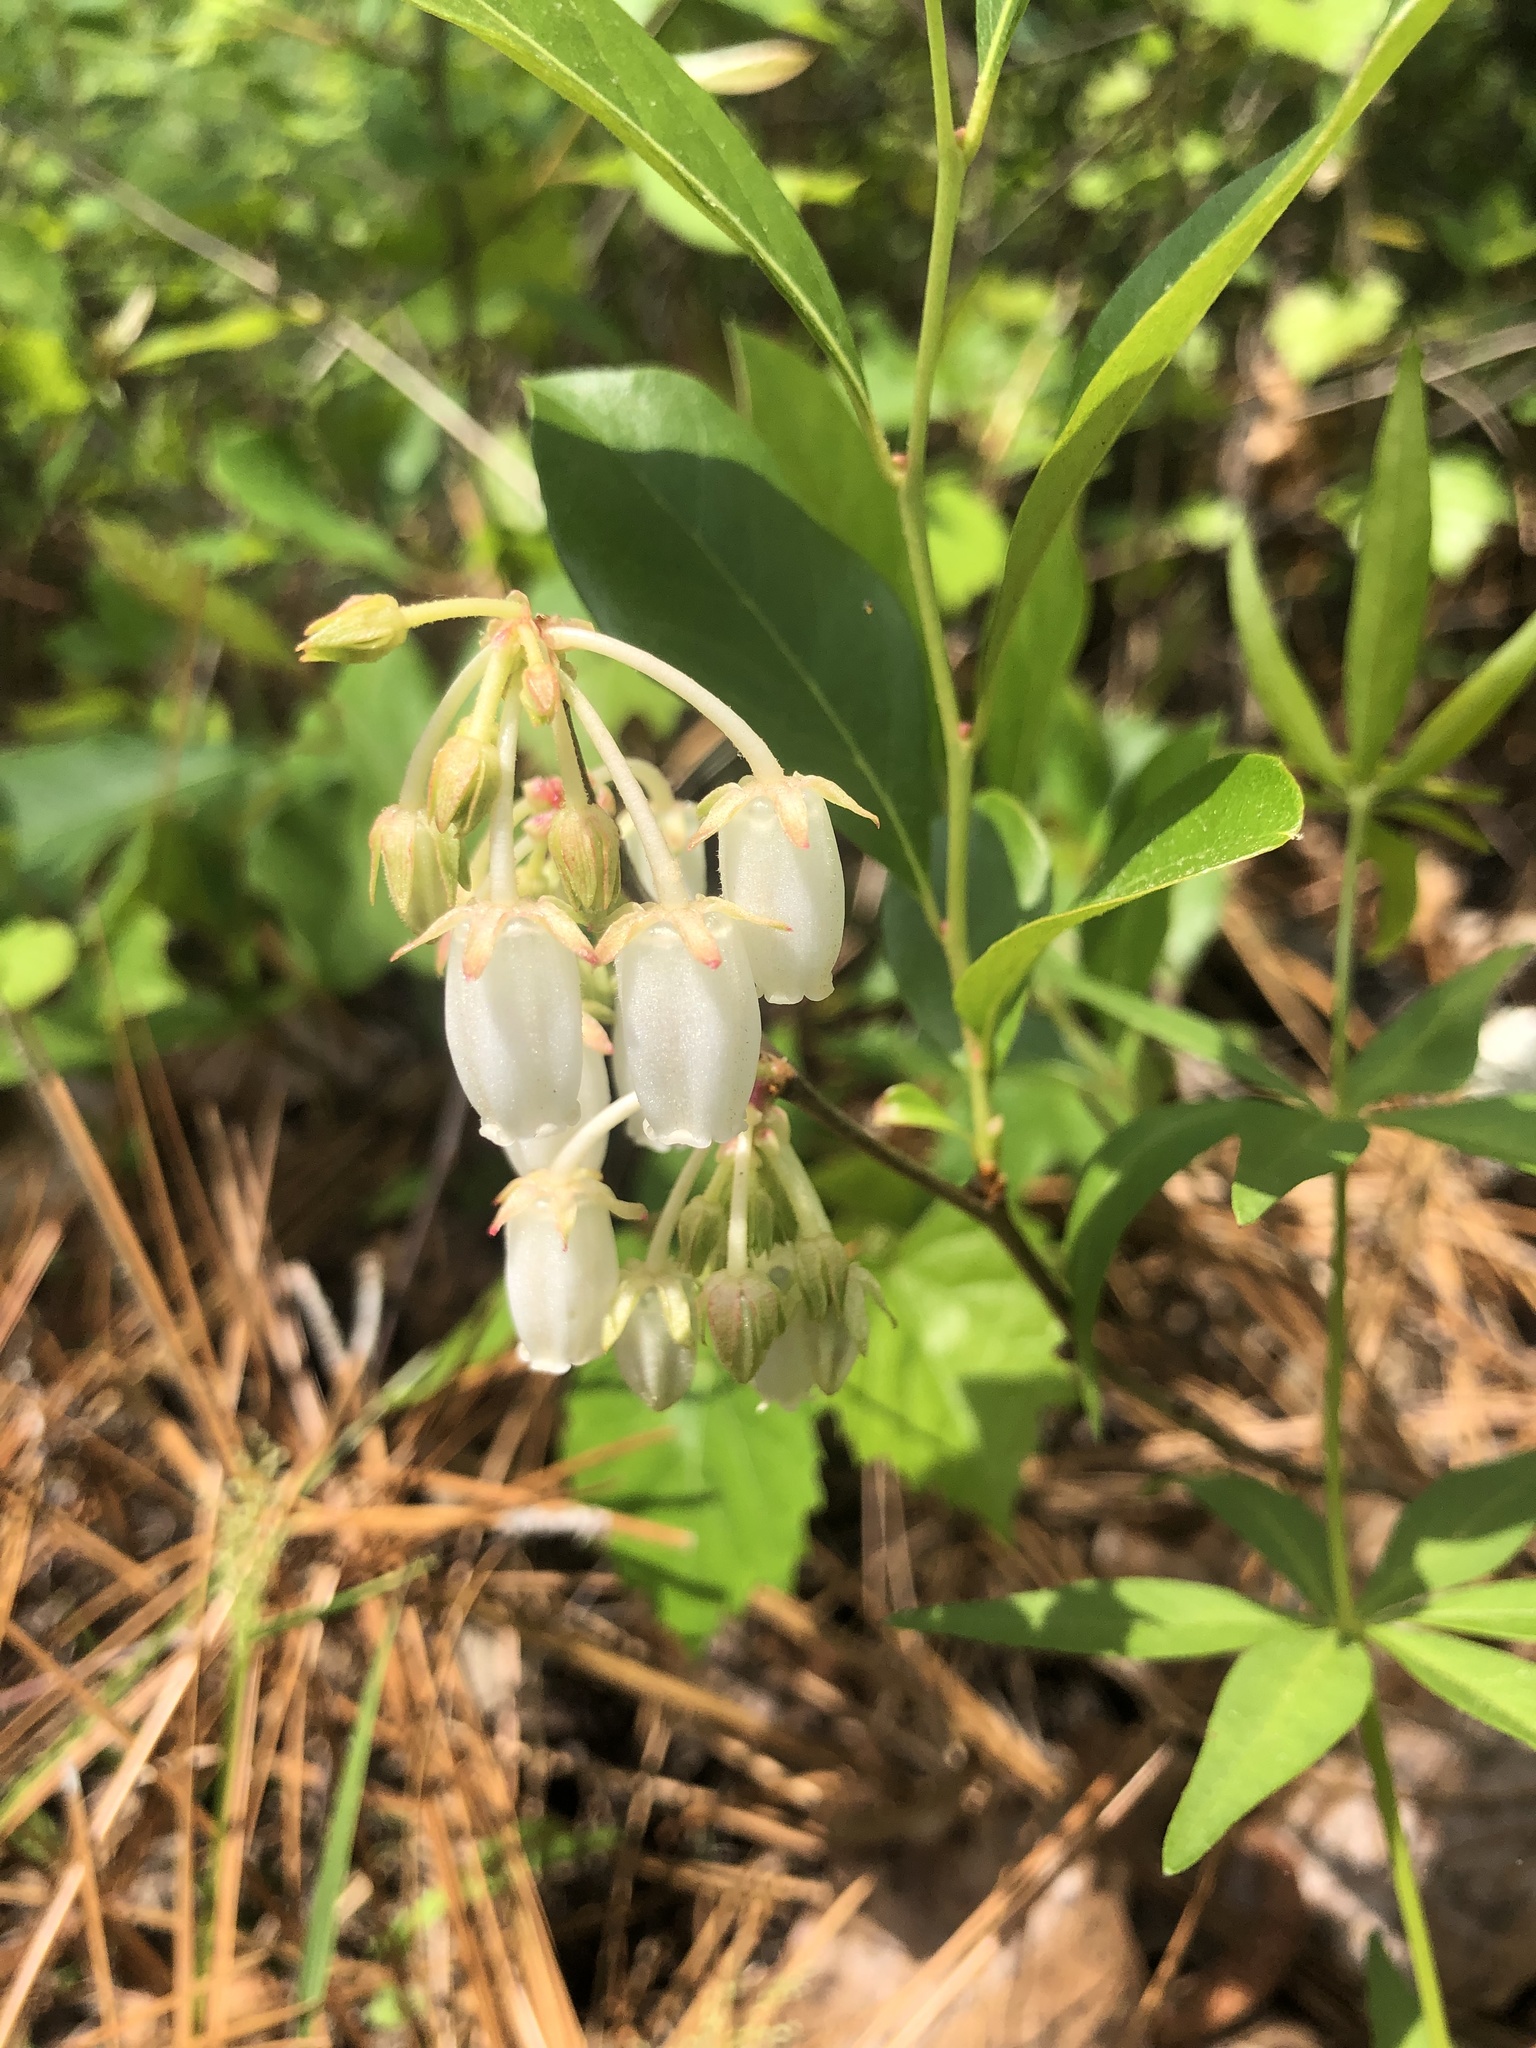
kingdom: Plantae
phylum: Tracheophyta
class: Magnoliopsida
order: Ericales
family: Ericaceae
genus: Lyonia
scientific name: Lyonia mariana
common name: Staggerbush
